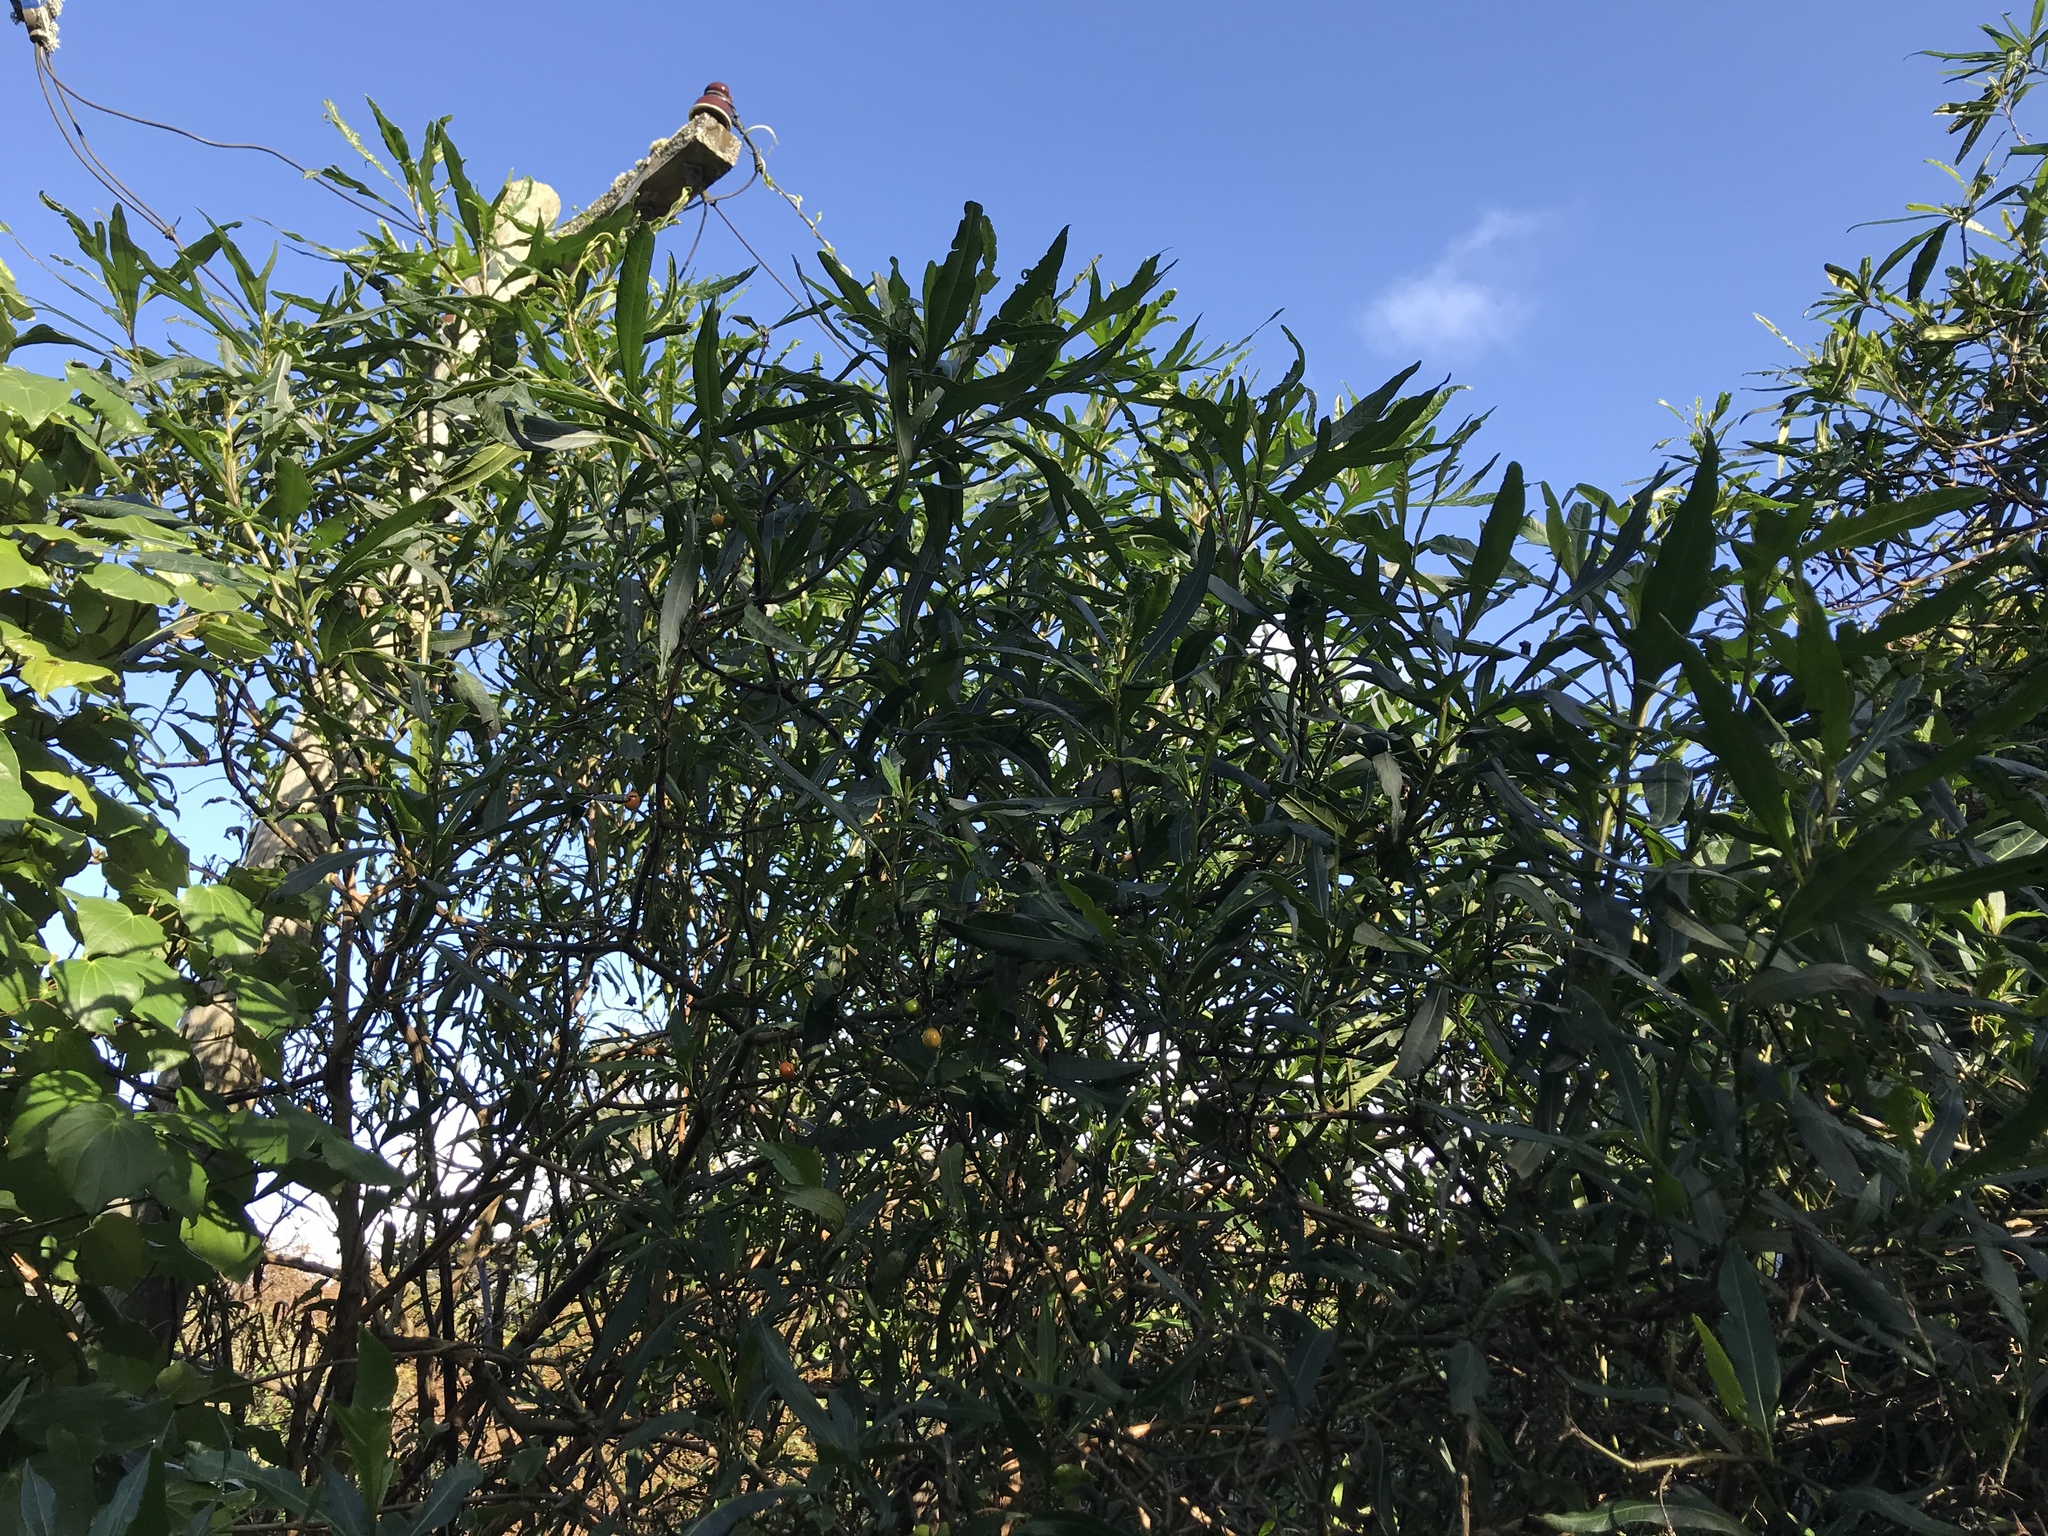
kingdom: Plantae
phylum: Tracheophyta
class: Magnoliopsida
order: Solanales
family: Solanaceae
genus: Solanum
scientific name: Solanum
